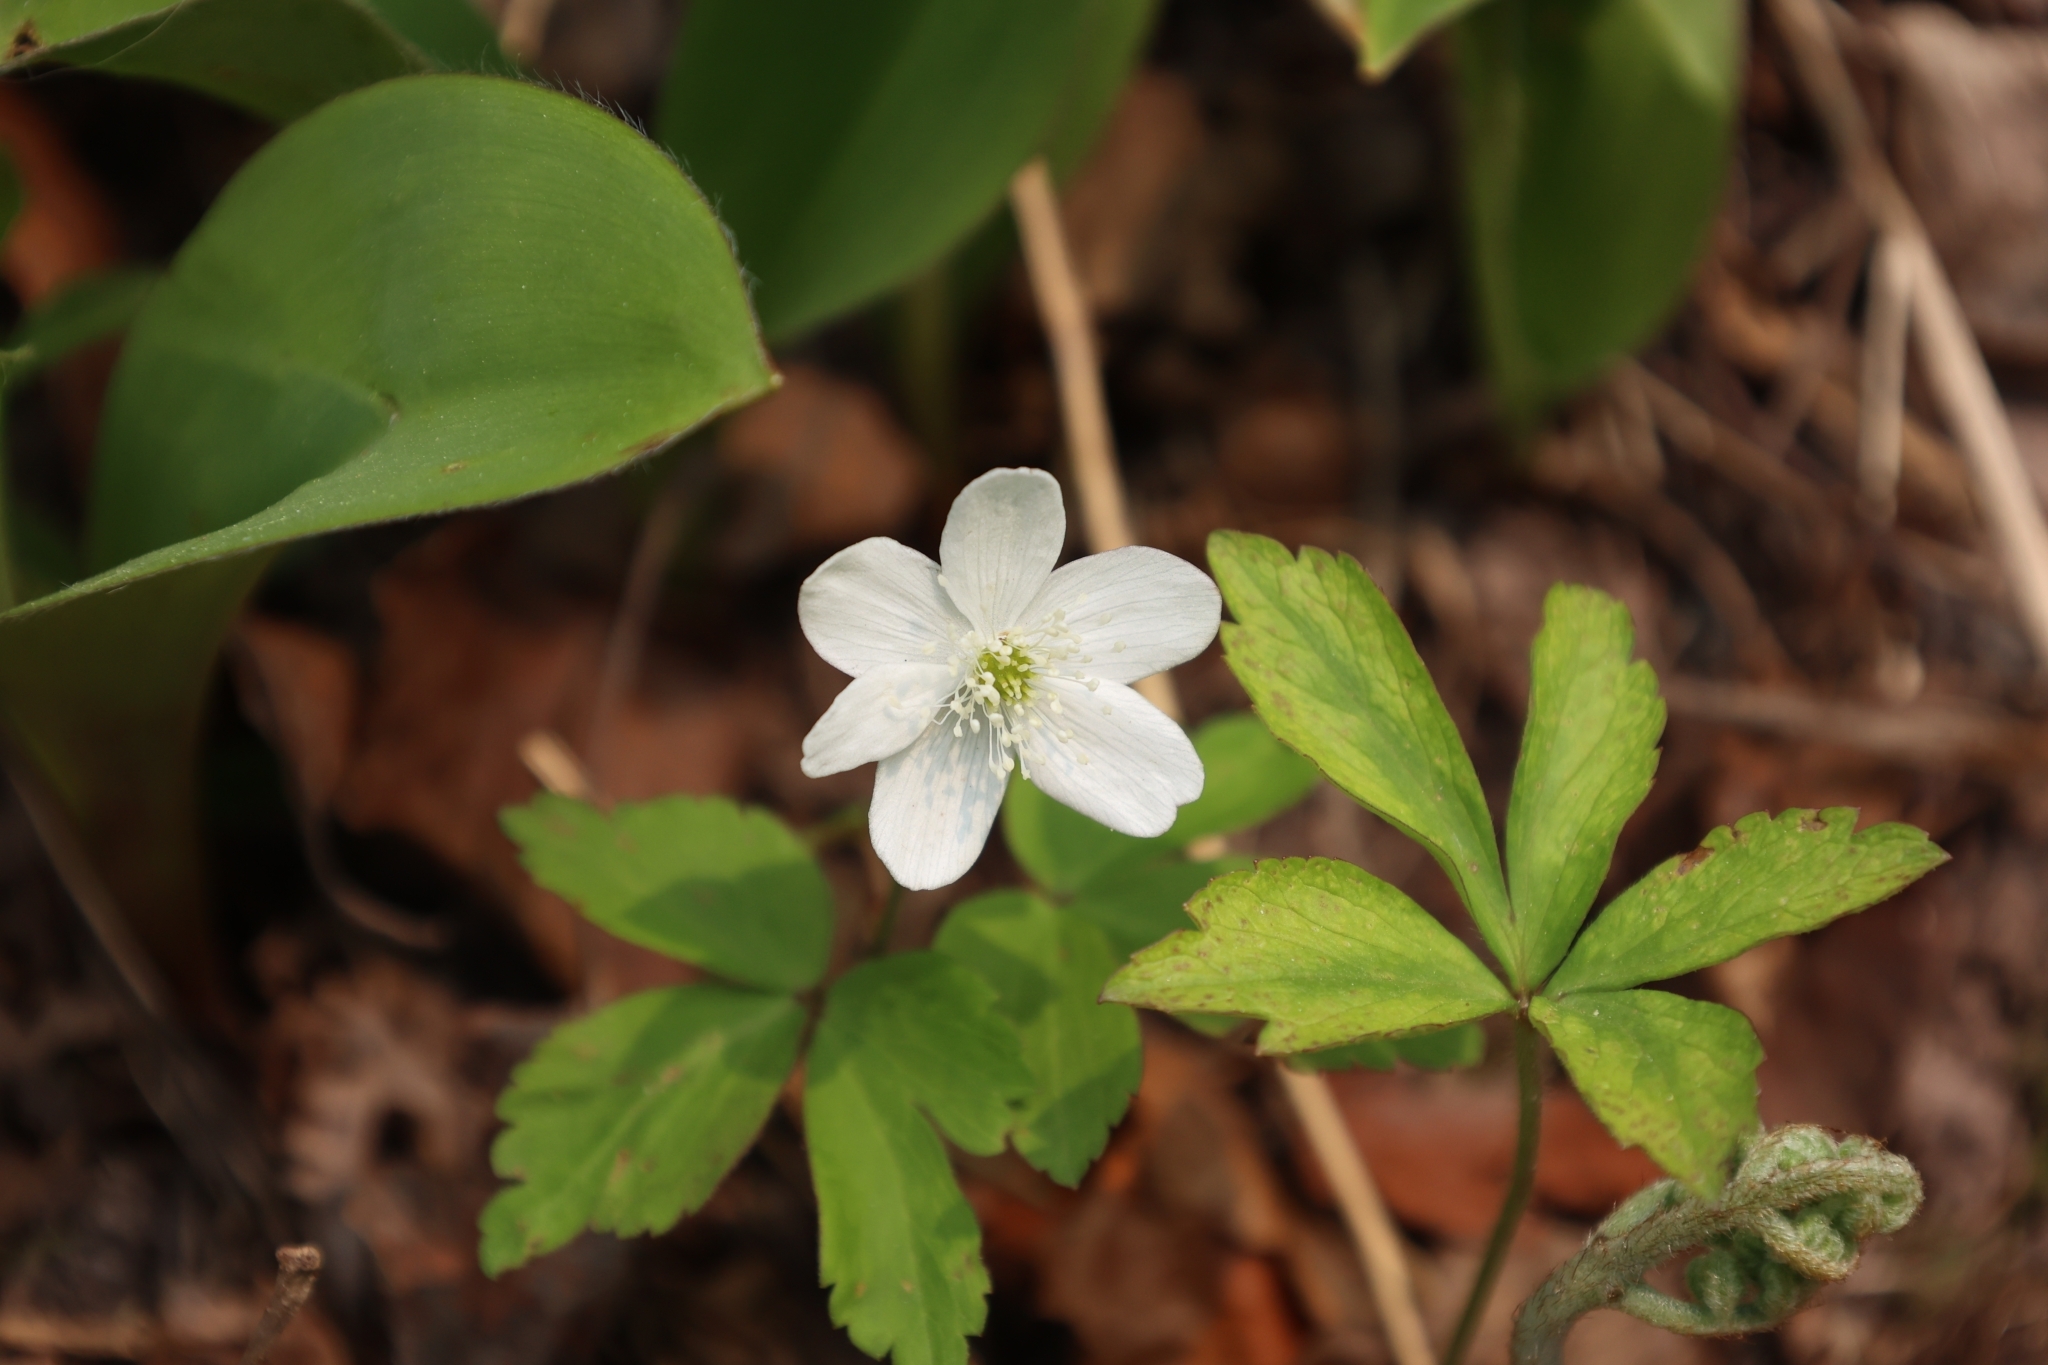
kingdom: Plantae
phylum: Tracheophyta
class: Magnoliopsida
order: Ranunculales
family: Ranunculaceae
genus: Anemone
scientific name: Anemone quinquefolia
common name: Wood anemone
